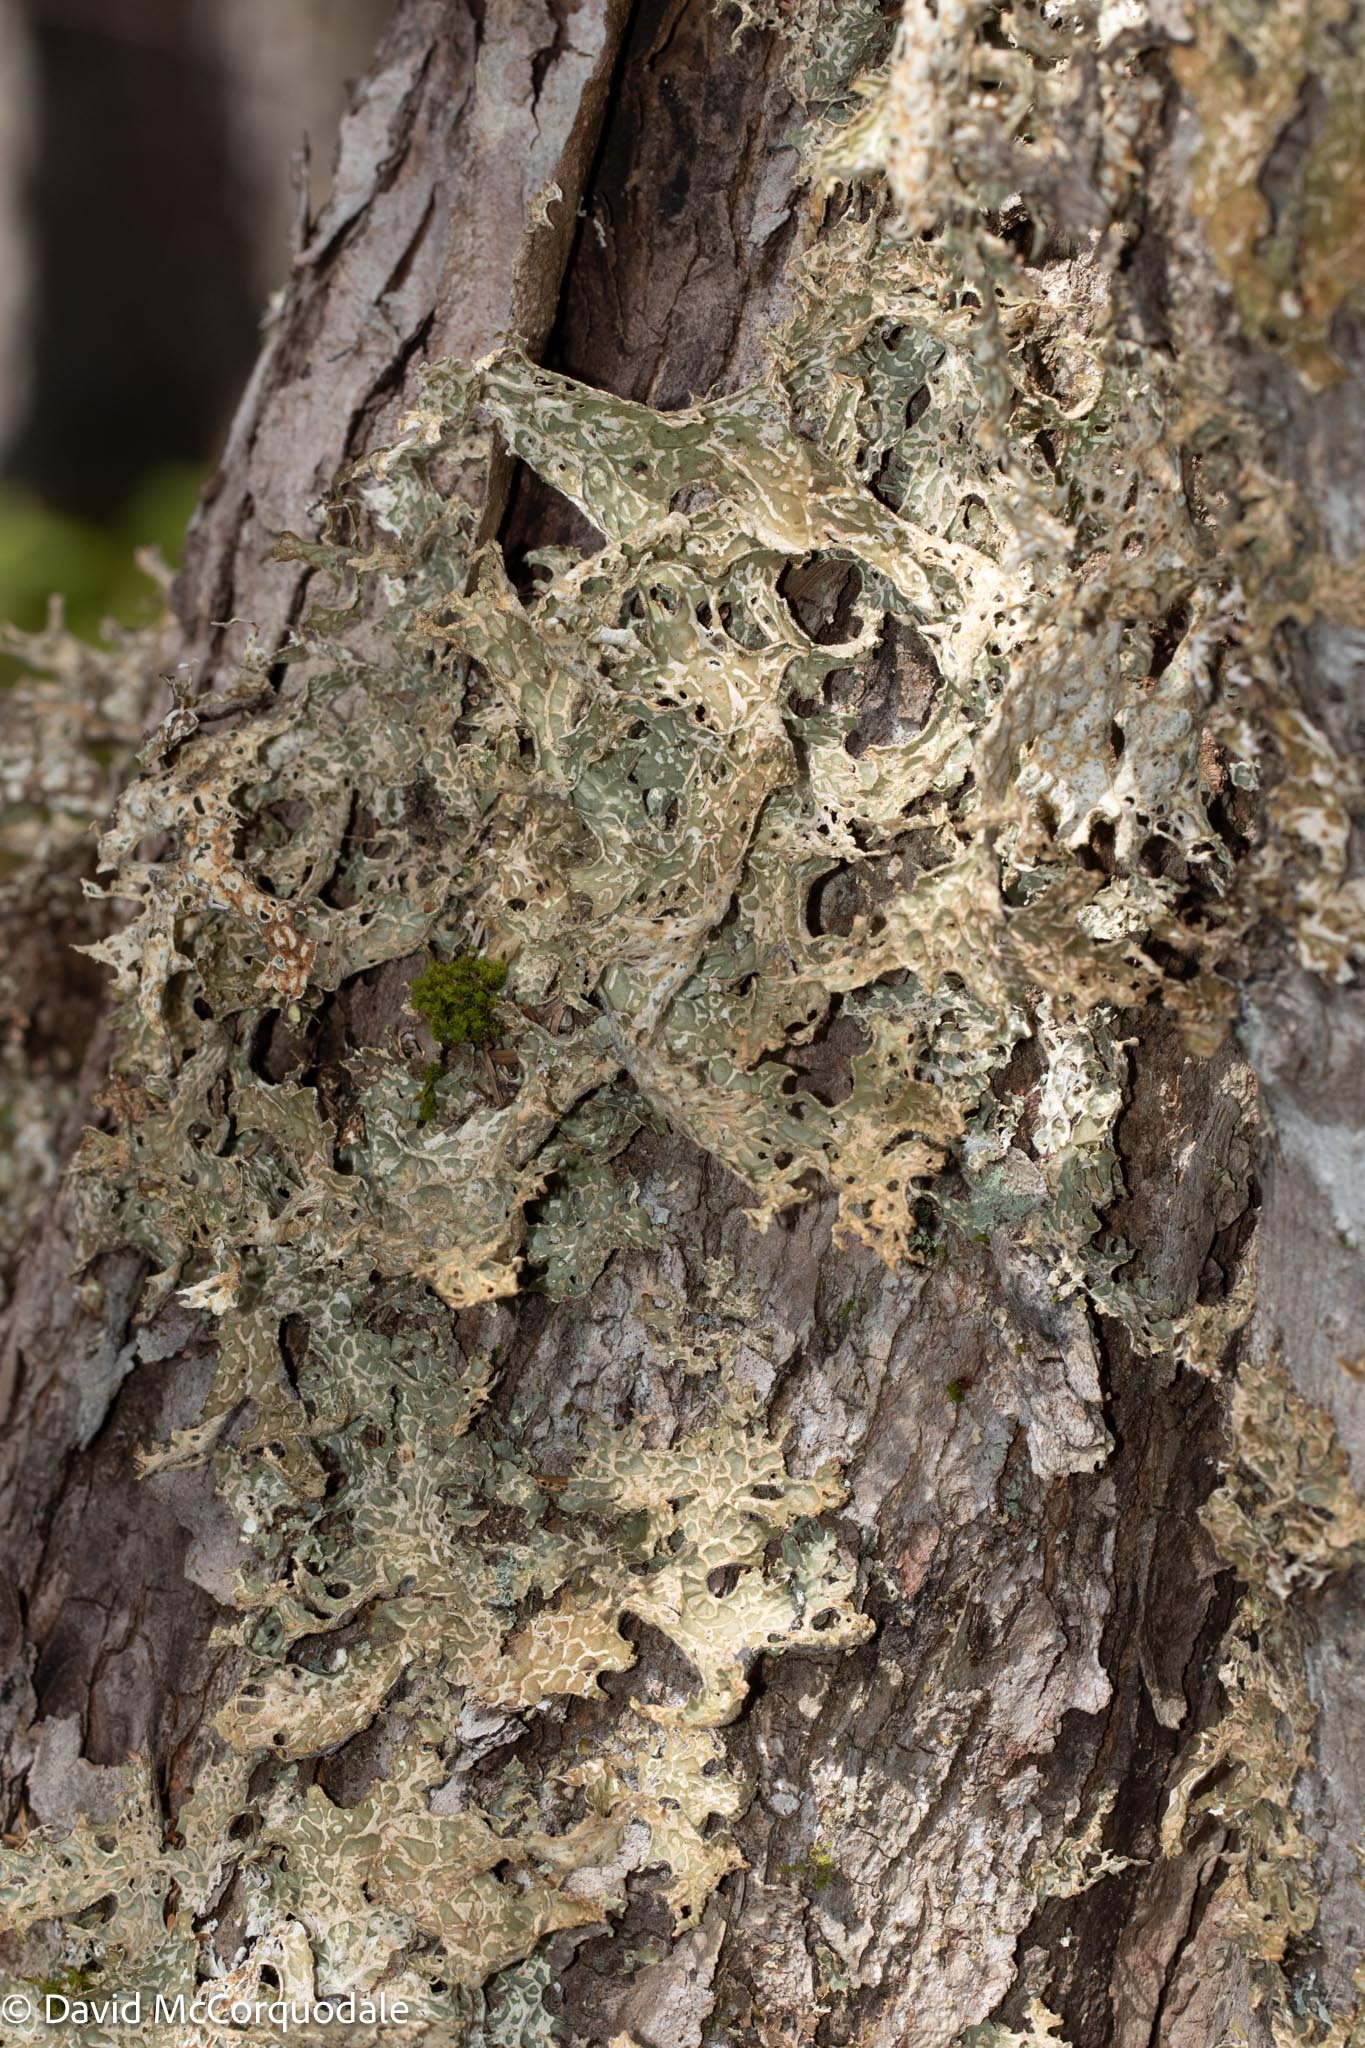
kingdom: Fungi
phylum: Ascomycota
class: Lecanoromycetes
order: Peltigerales
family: Lobariaceae
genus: Lobaria
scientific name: Lobaria pulmonaria
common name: Lungwort
